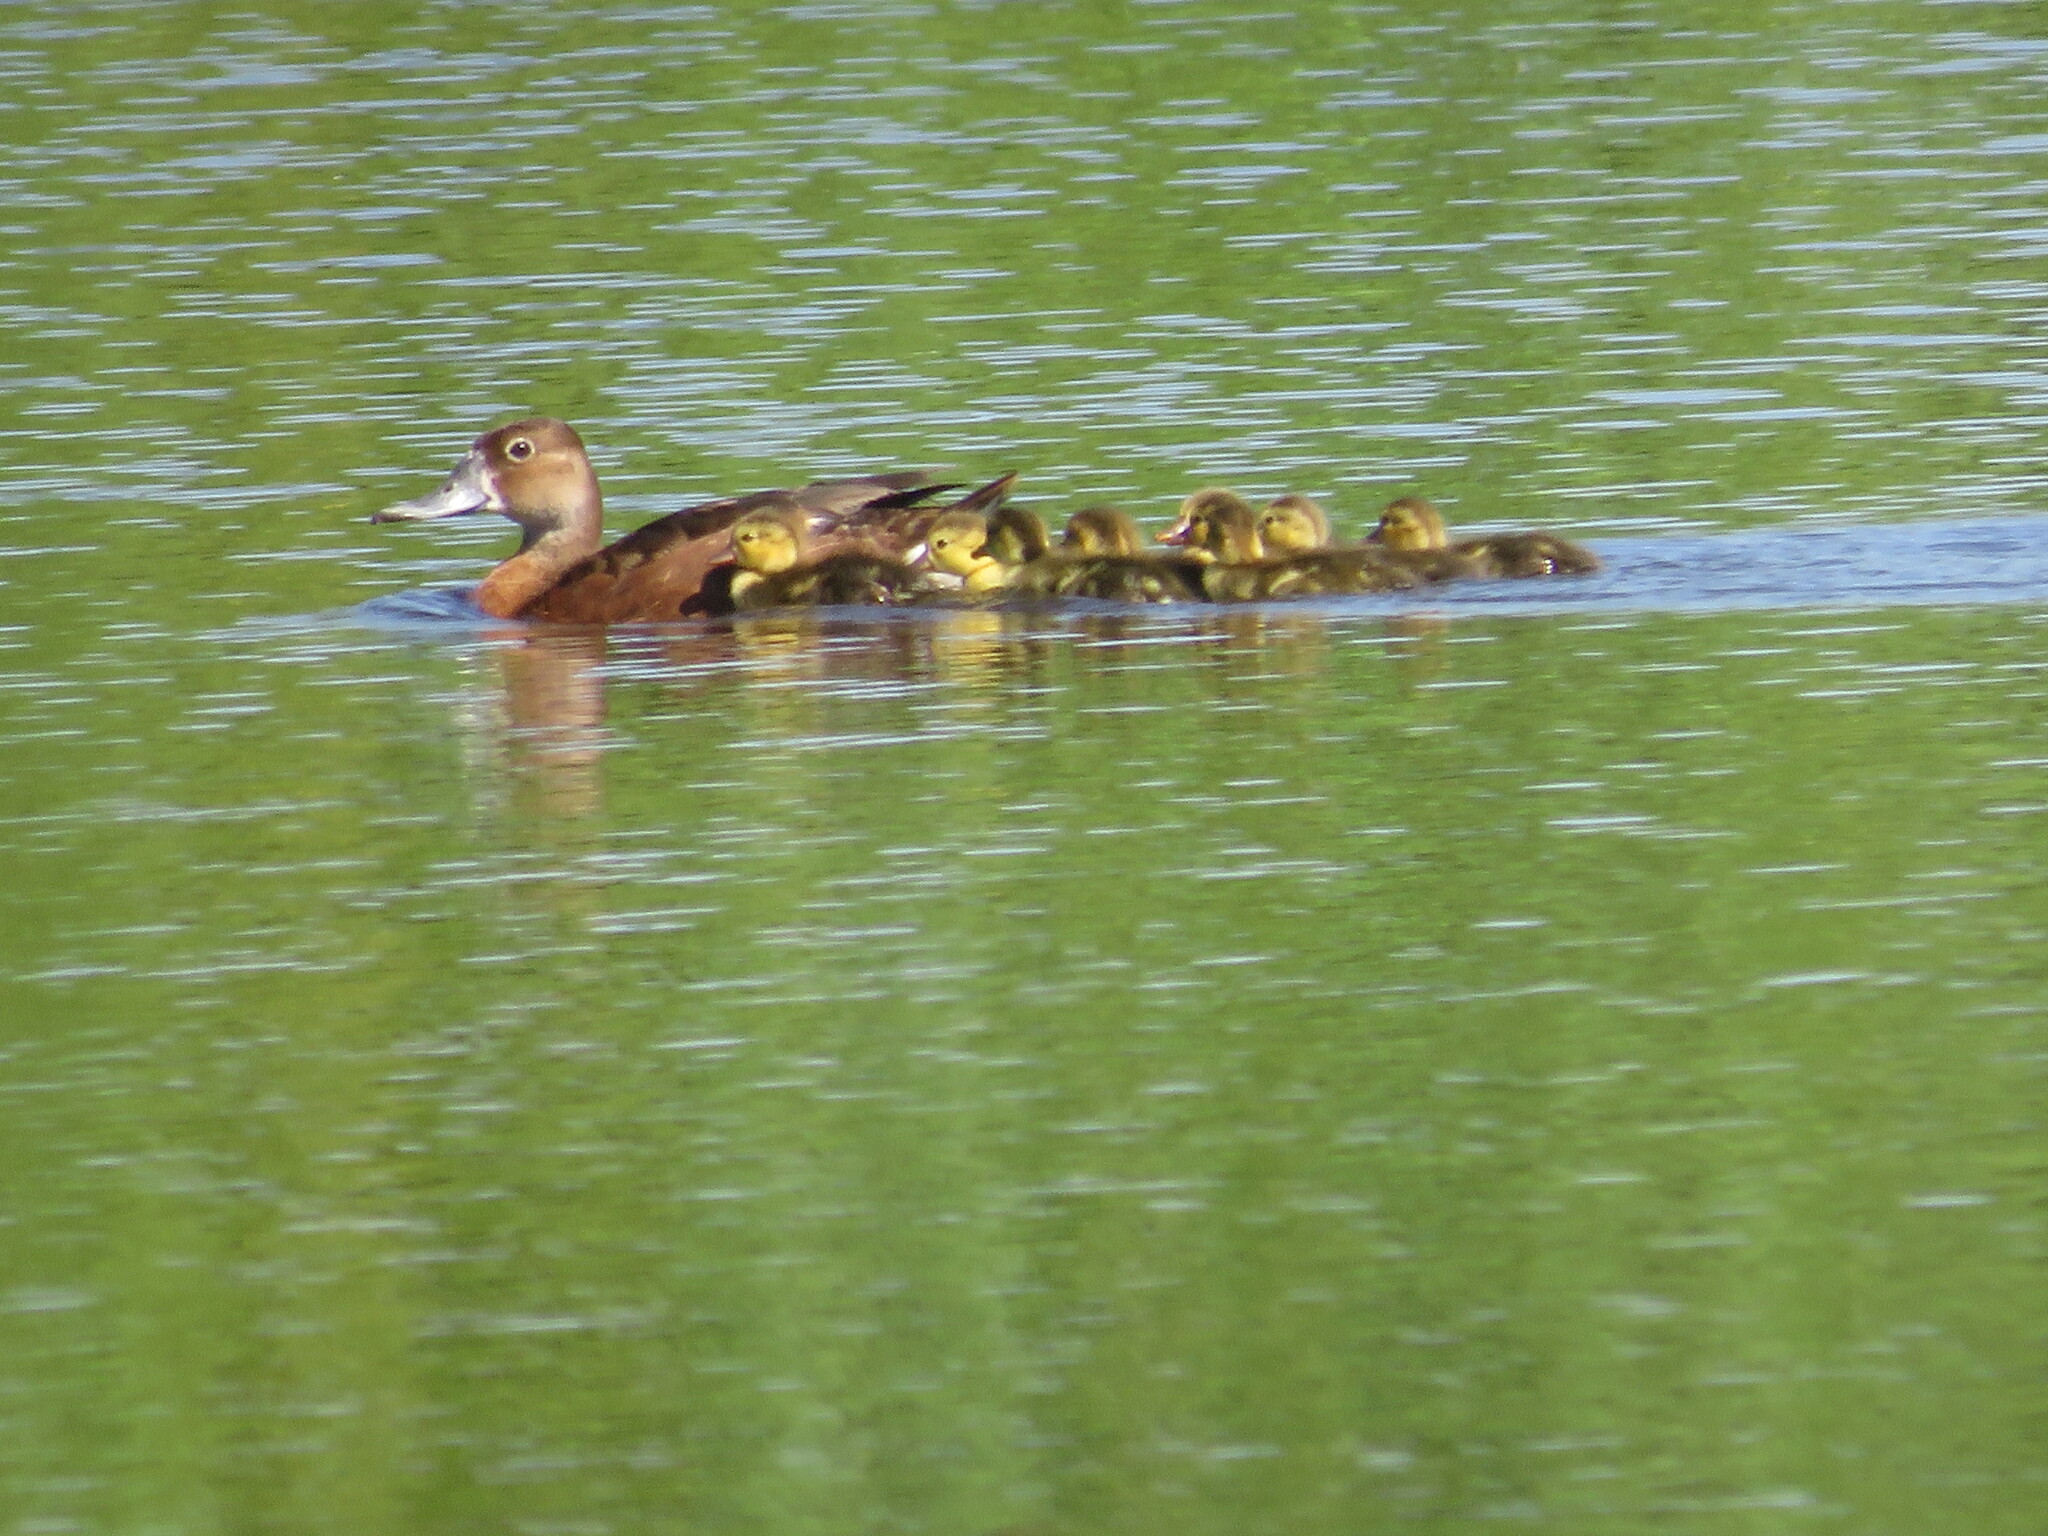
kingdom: Animalia
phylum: Chordata
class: Aves
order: Anseriformes
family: Anatidae
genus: Netta
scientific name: Netta peposaca
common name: Rosy-billed pochard
